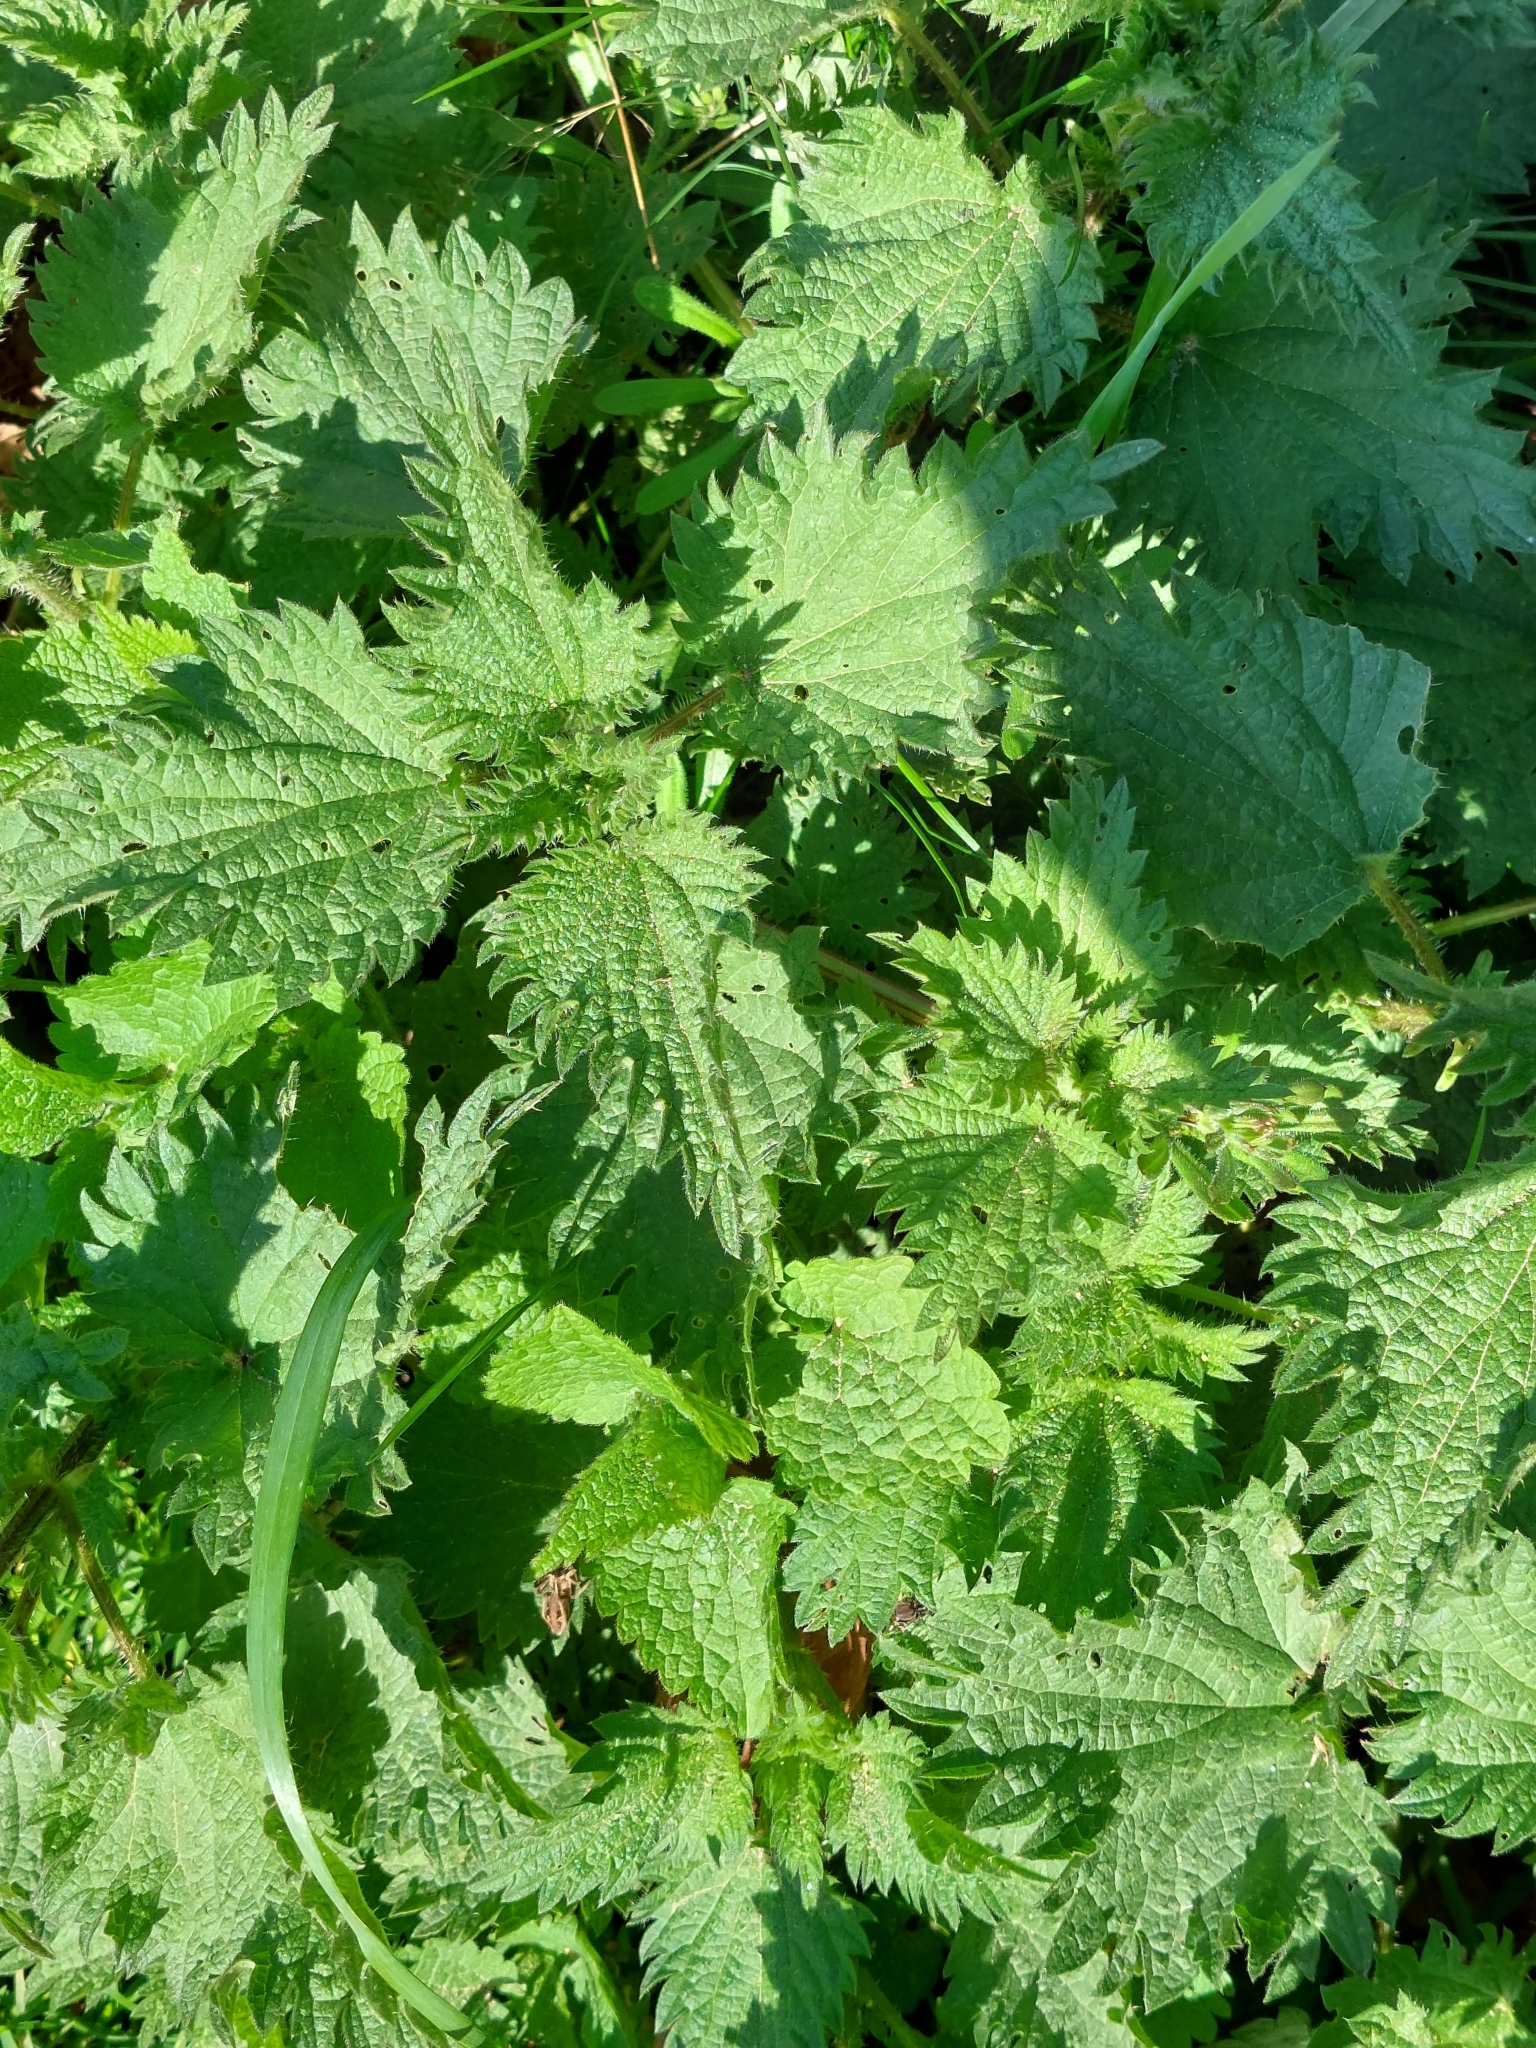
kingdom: Plantae
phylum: Tracheophyta
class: Magnoliopsida
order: Rosales
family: Urticaceae
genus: Urtica
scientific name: Urtica dioica
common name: Common nettle
